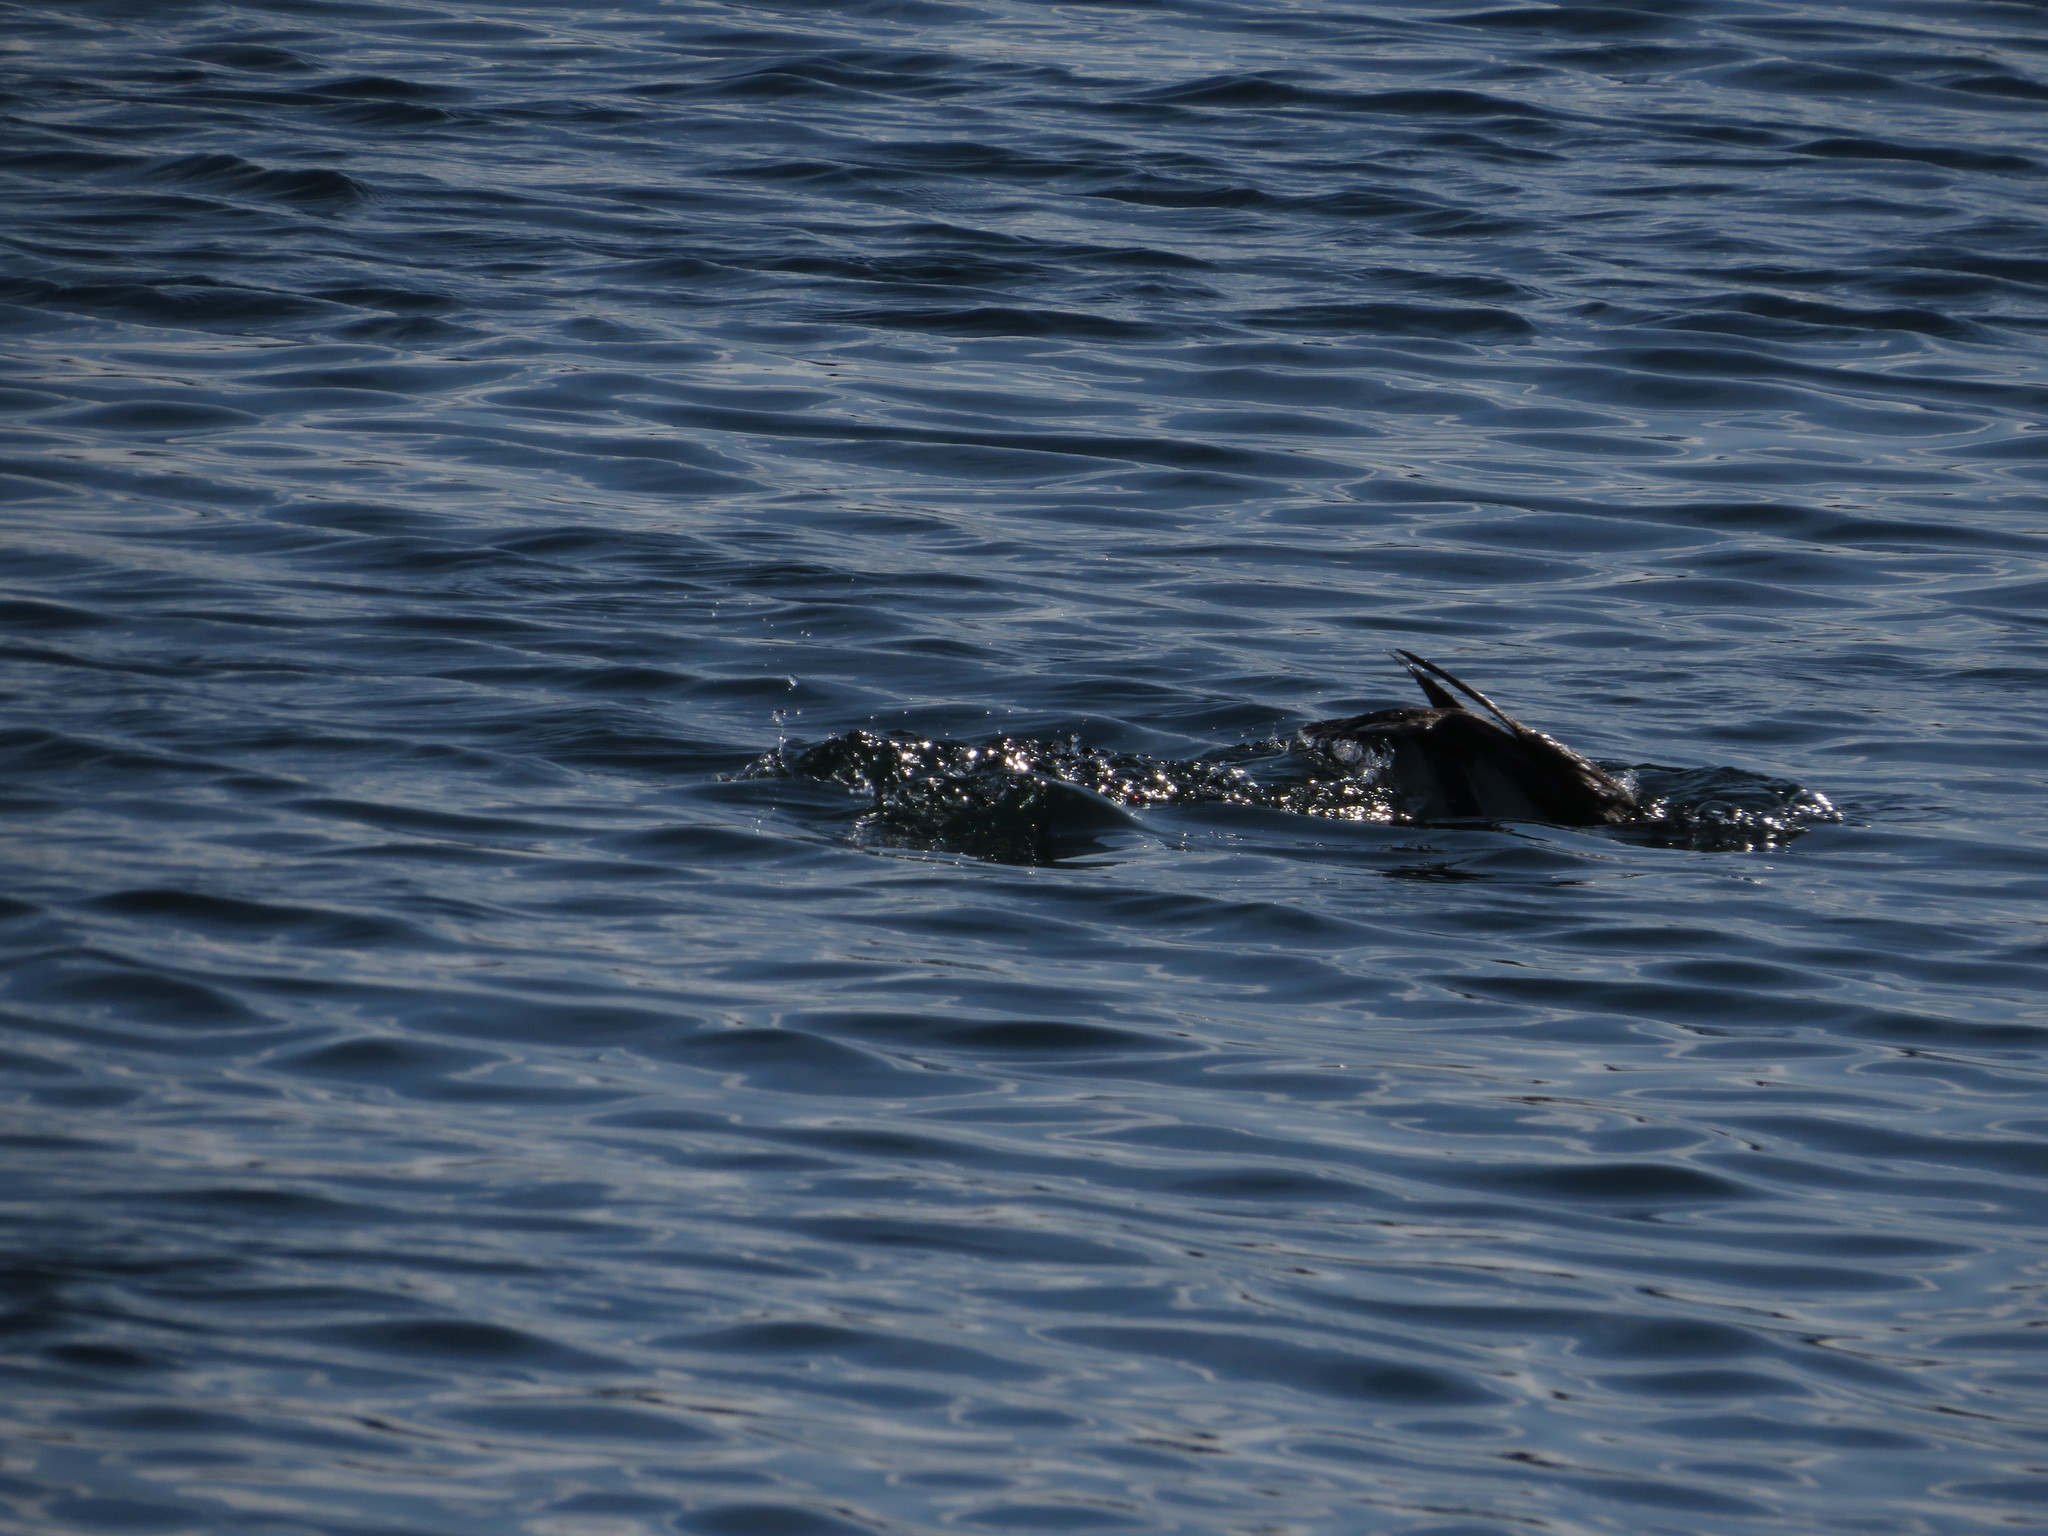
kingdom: Animalia
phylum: Chordata
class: Aves
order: Gaviiformes
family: Gaviidae
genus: Gavia
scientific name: Gavia immer
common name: Common loon
